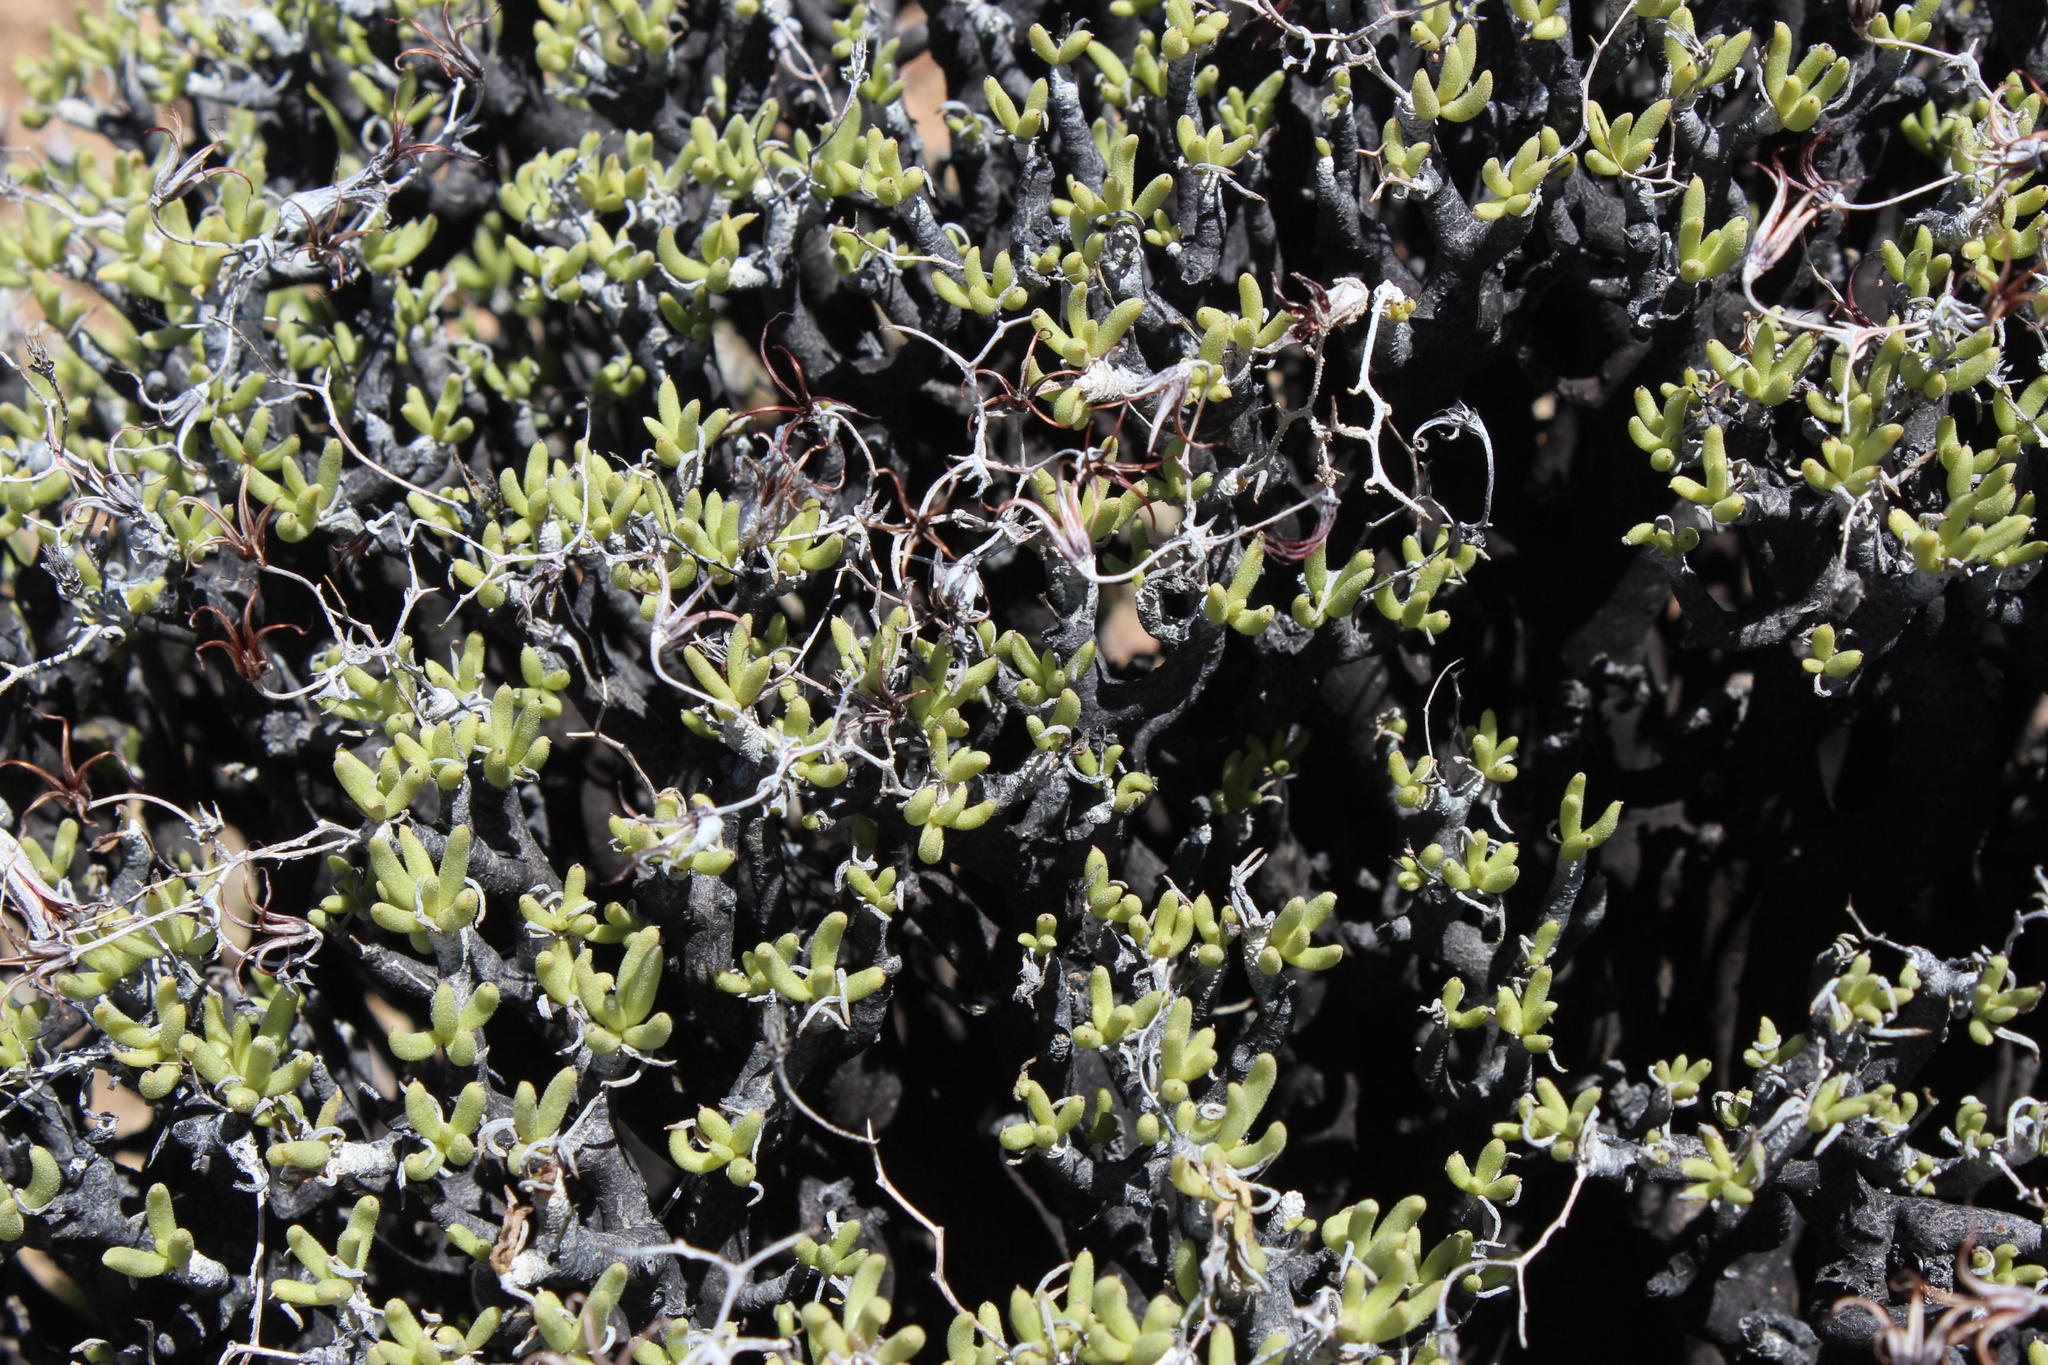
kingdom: Plantae
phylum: Tracheophyta
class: Magnoliopsida
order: Saxifragales
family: Crassulaceae
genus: Tylecodon
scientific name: Tylecodon hallii
